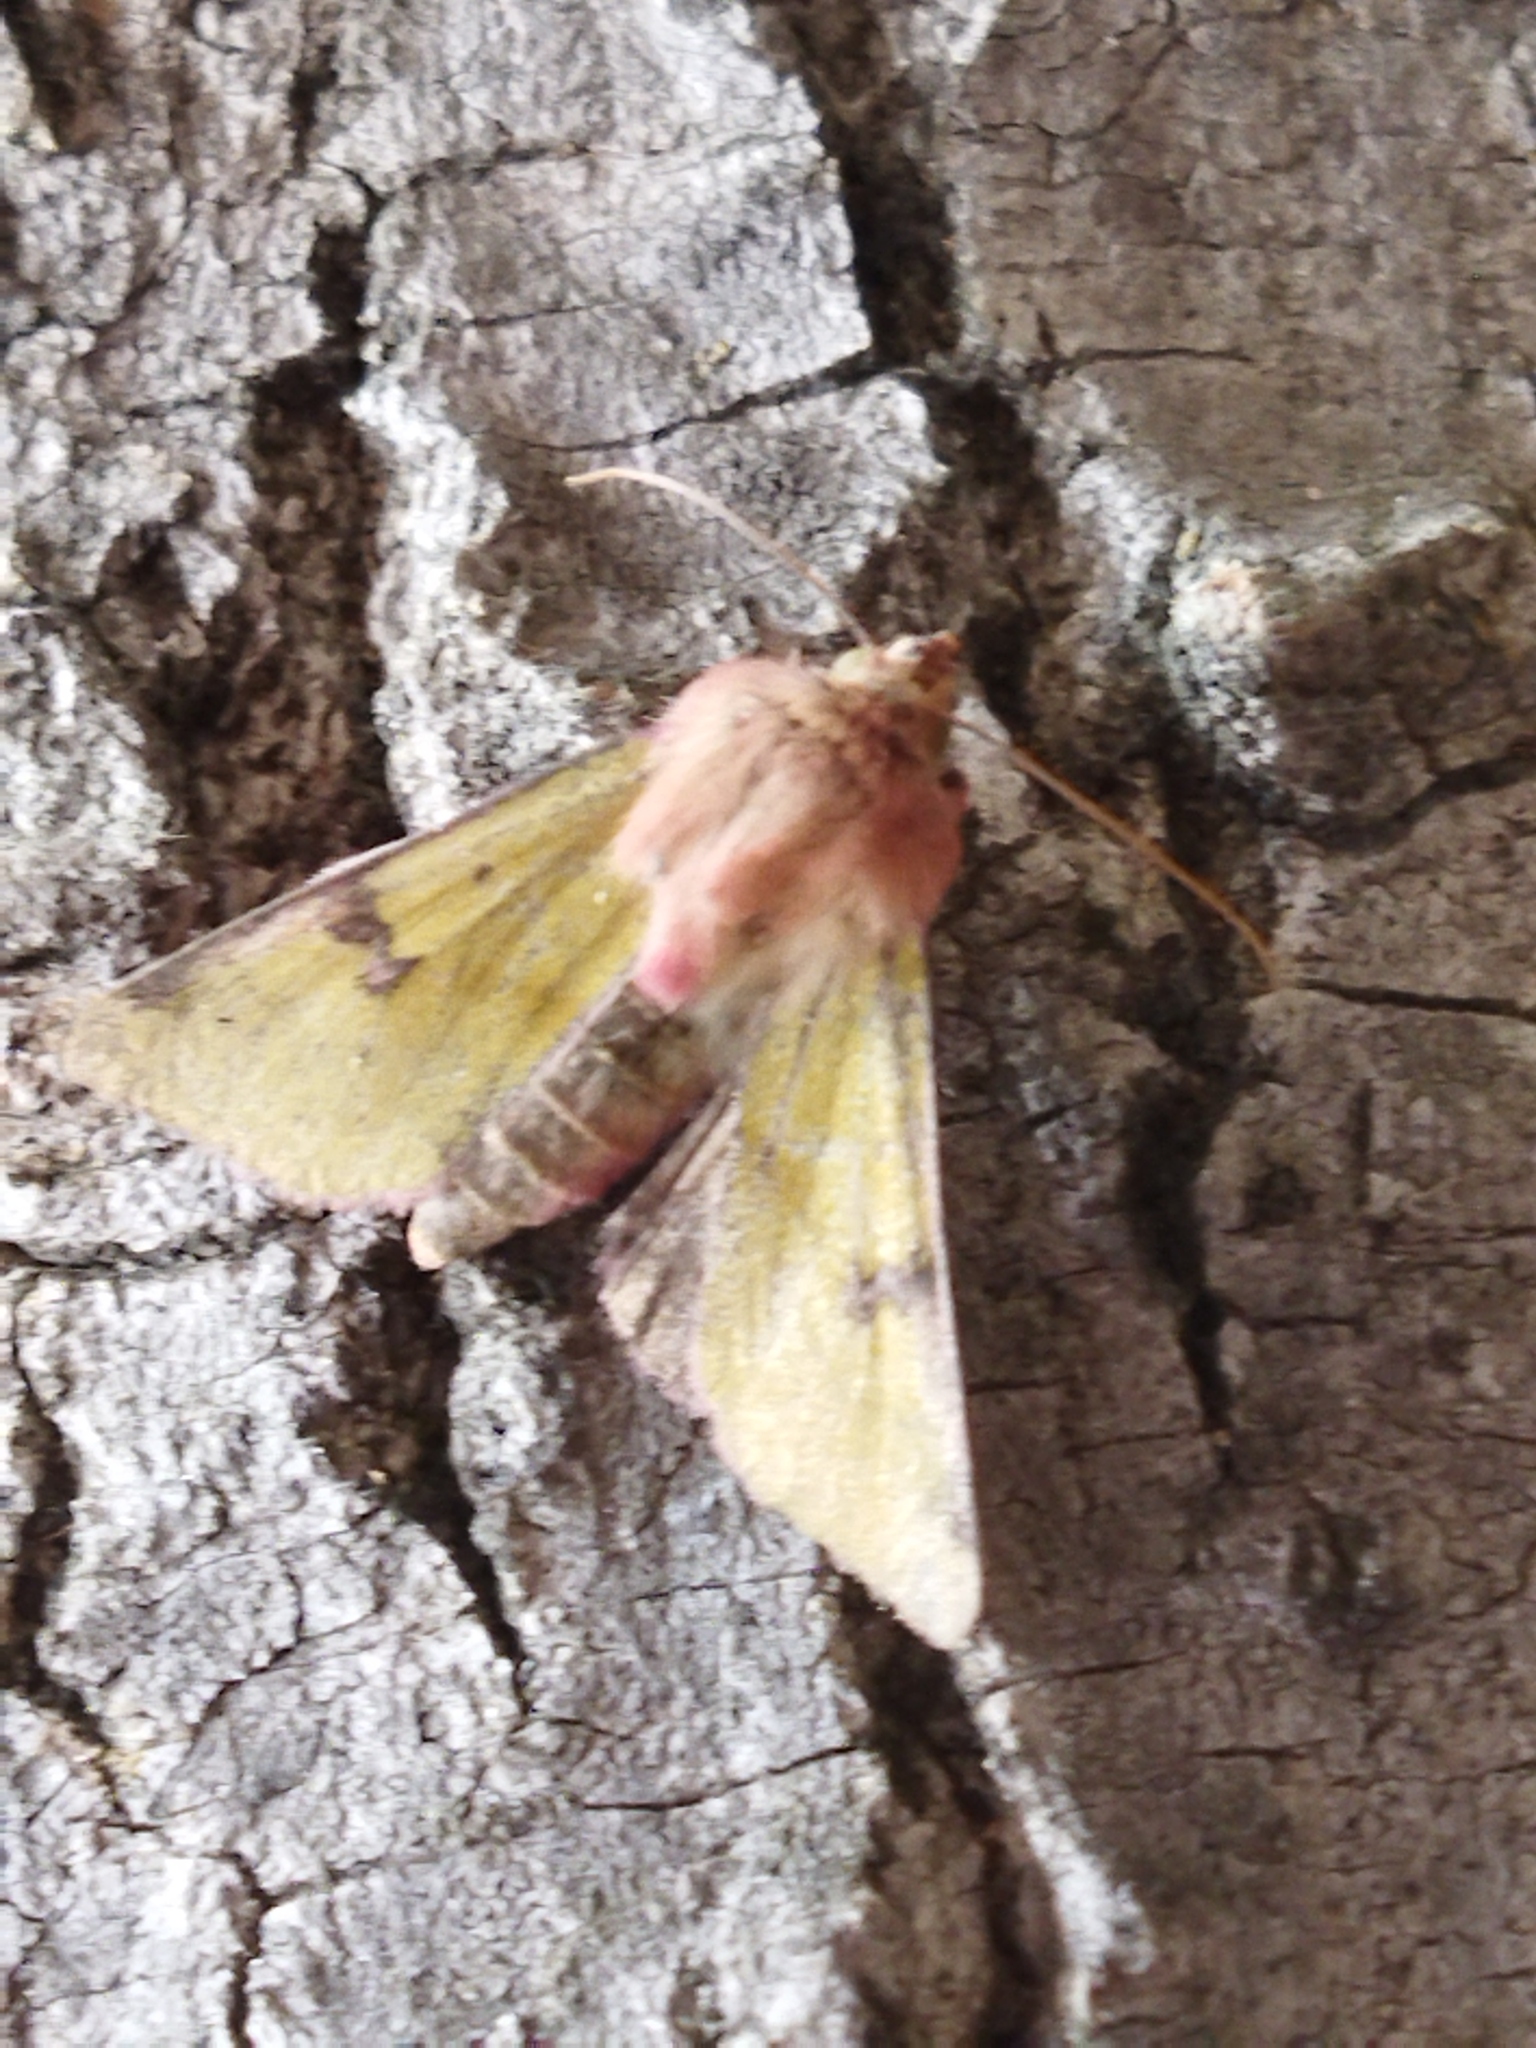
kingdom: Animalia
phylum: Arthropoda
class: Insecta
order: Lepidoptera
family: Noctuidae
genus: Heliothis
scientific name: Heliothis incarnata
